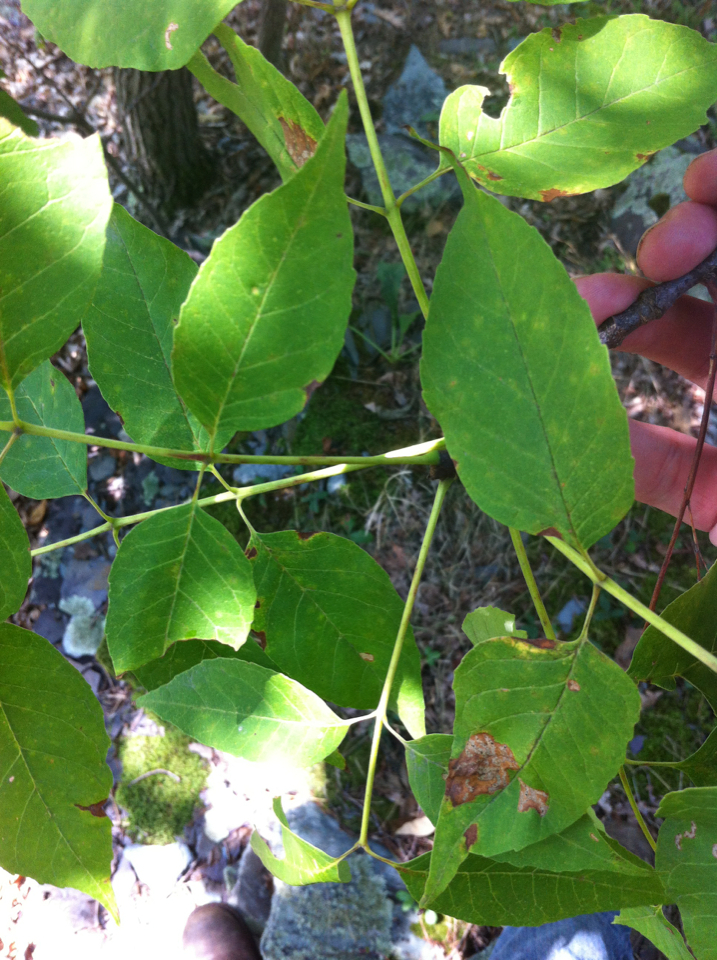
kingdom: Plantae
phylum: Tracheophyta
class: Magnoliopsida
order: Lamiales
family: Oleaceae
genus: Fraxinus
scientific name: Fraxinus americana
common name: White ash
